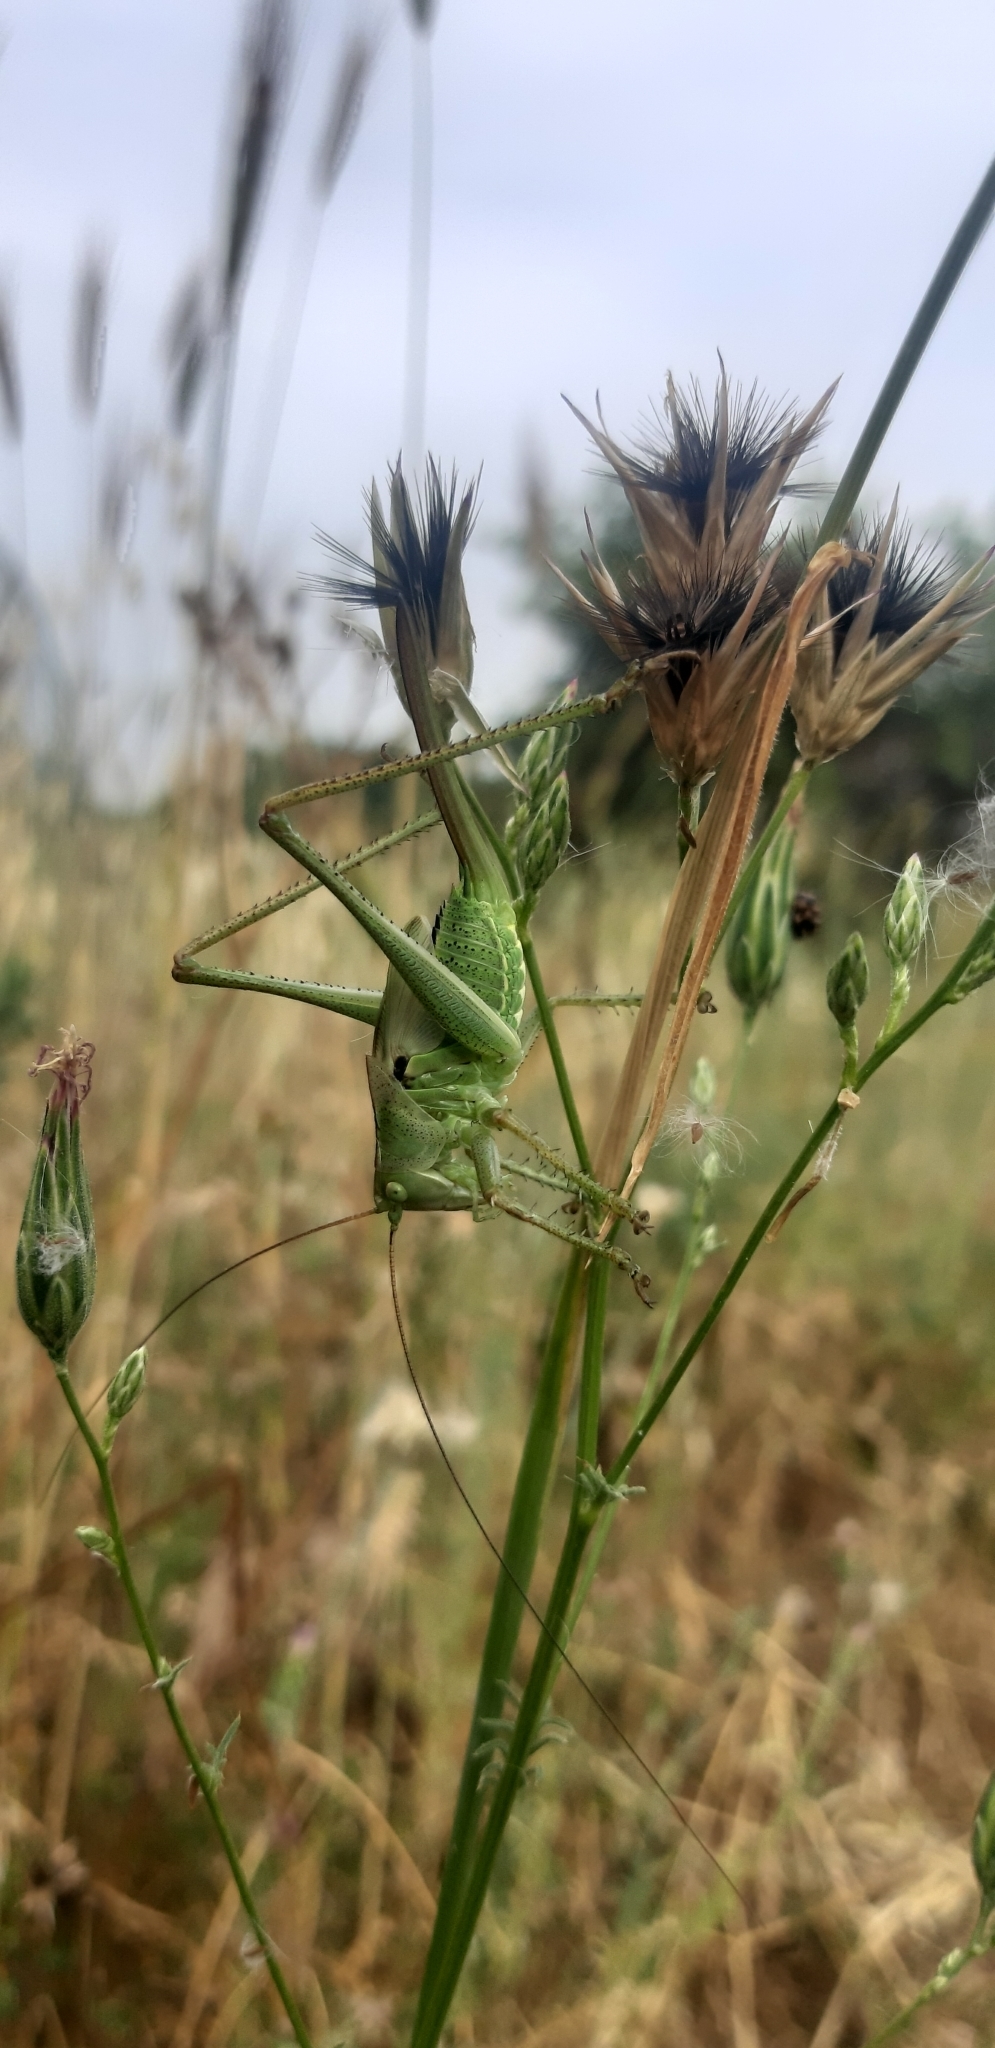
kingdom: Animalia
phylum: Arthropoda
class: Insecta
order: Orthoptera
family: Tettigoniidae
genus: Tettigonia
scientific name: Tettigonia viridissima
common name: Great green bush-cricket
